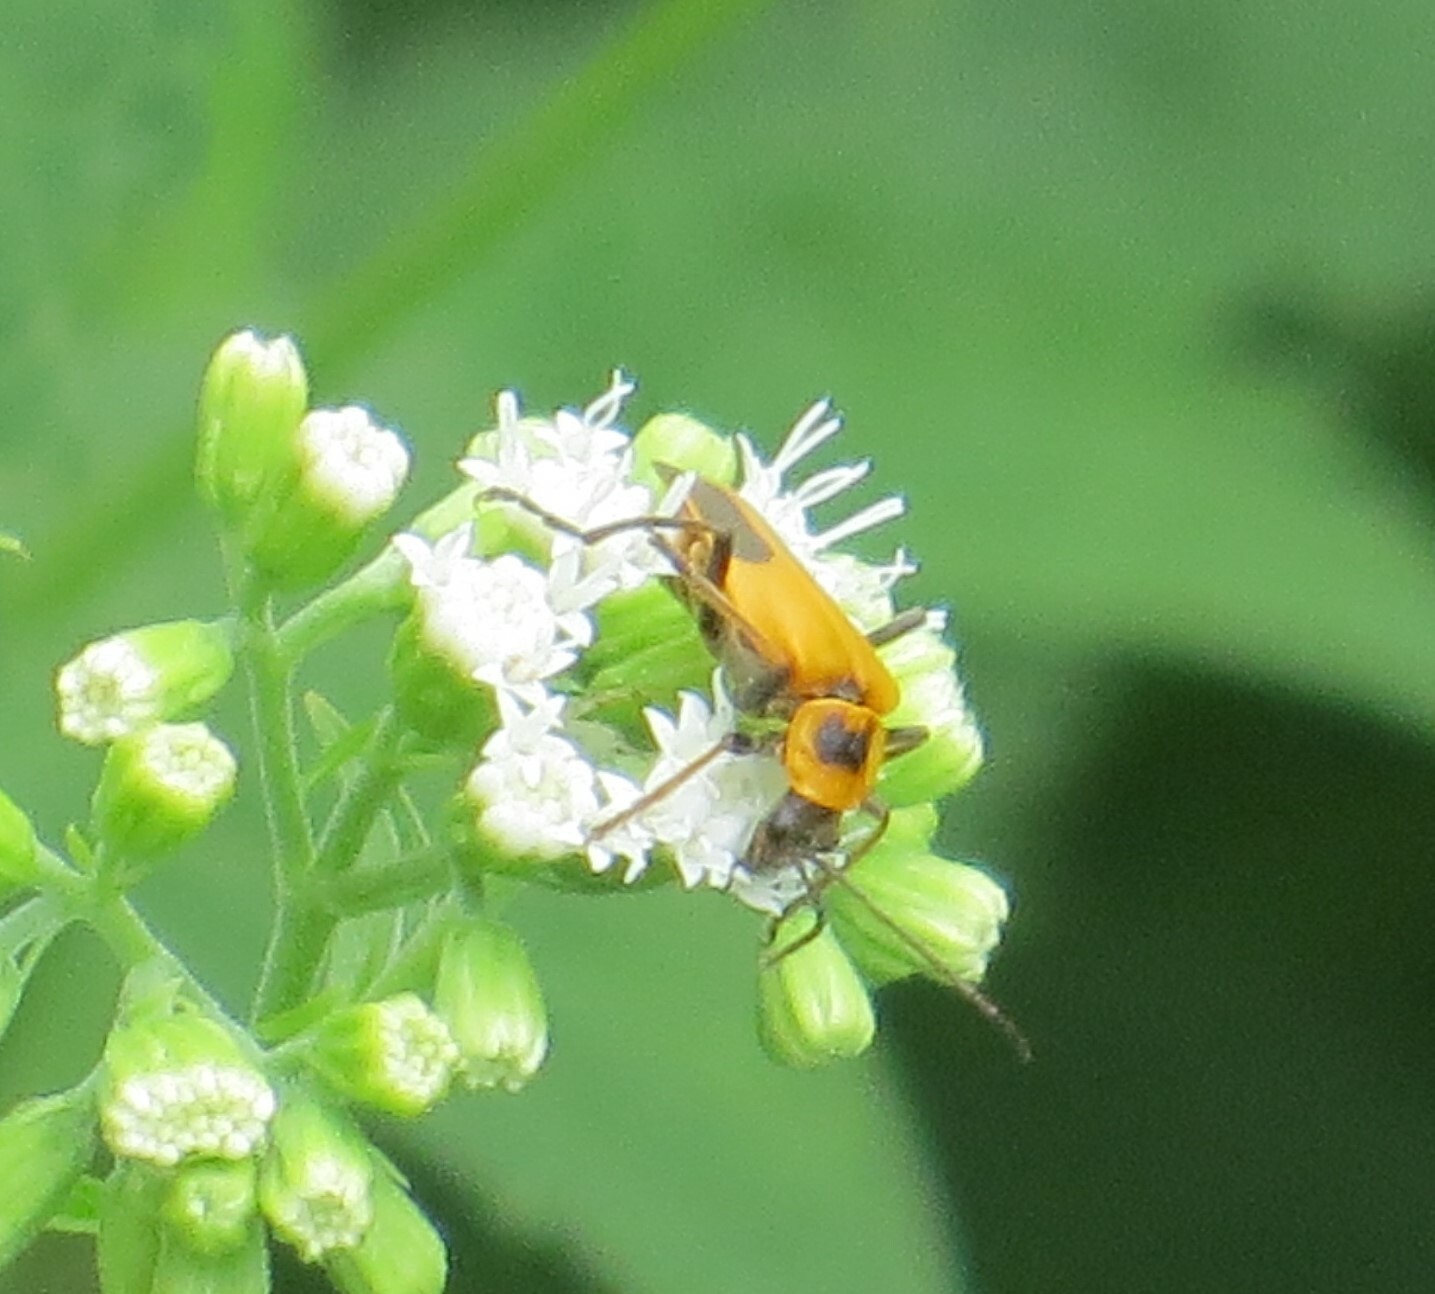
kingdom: Animalia
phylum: Arthropoda
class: Insecta
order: Coleoptera
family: Cantharidae
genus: Chauliognathus
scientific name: Chauliognathus pensylvanicus
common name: Goldenrod soldier beetle
